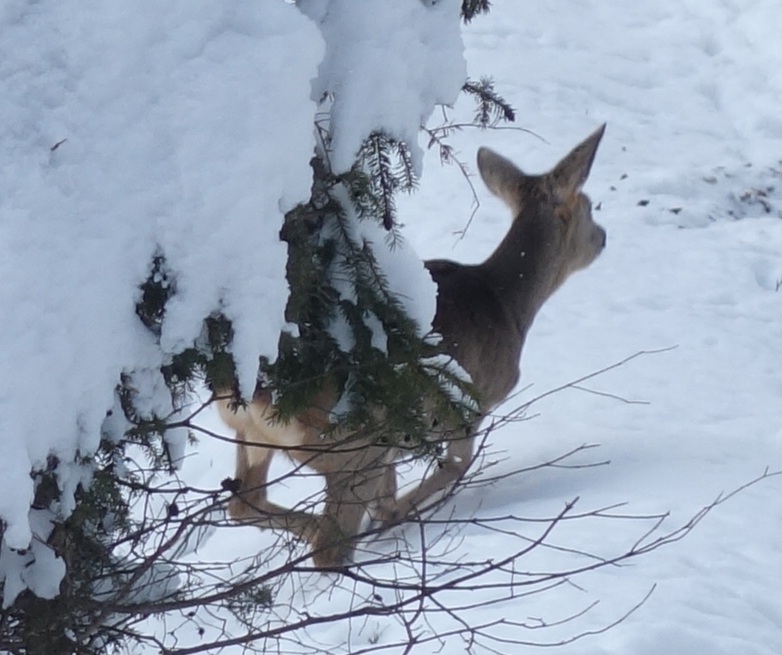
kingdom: Animalia
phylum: Chordata
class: Mammalia
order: Artiodactyla
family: Cervidae
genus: Capreolus
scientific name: Capreolus capreolus
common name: Western roe deer
